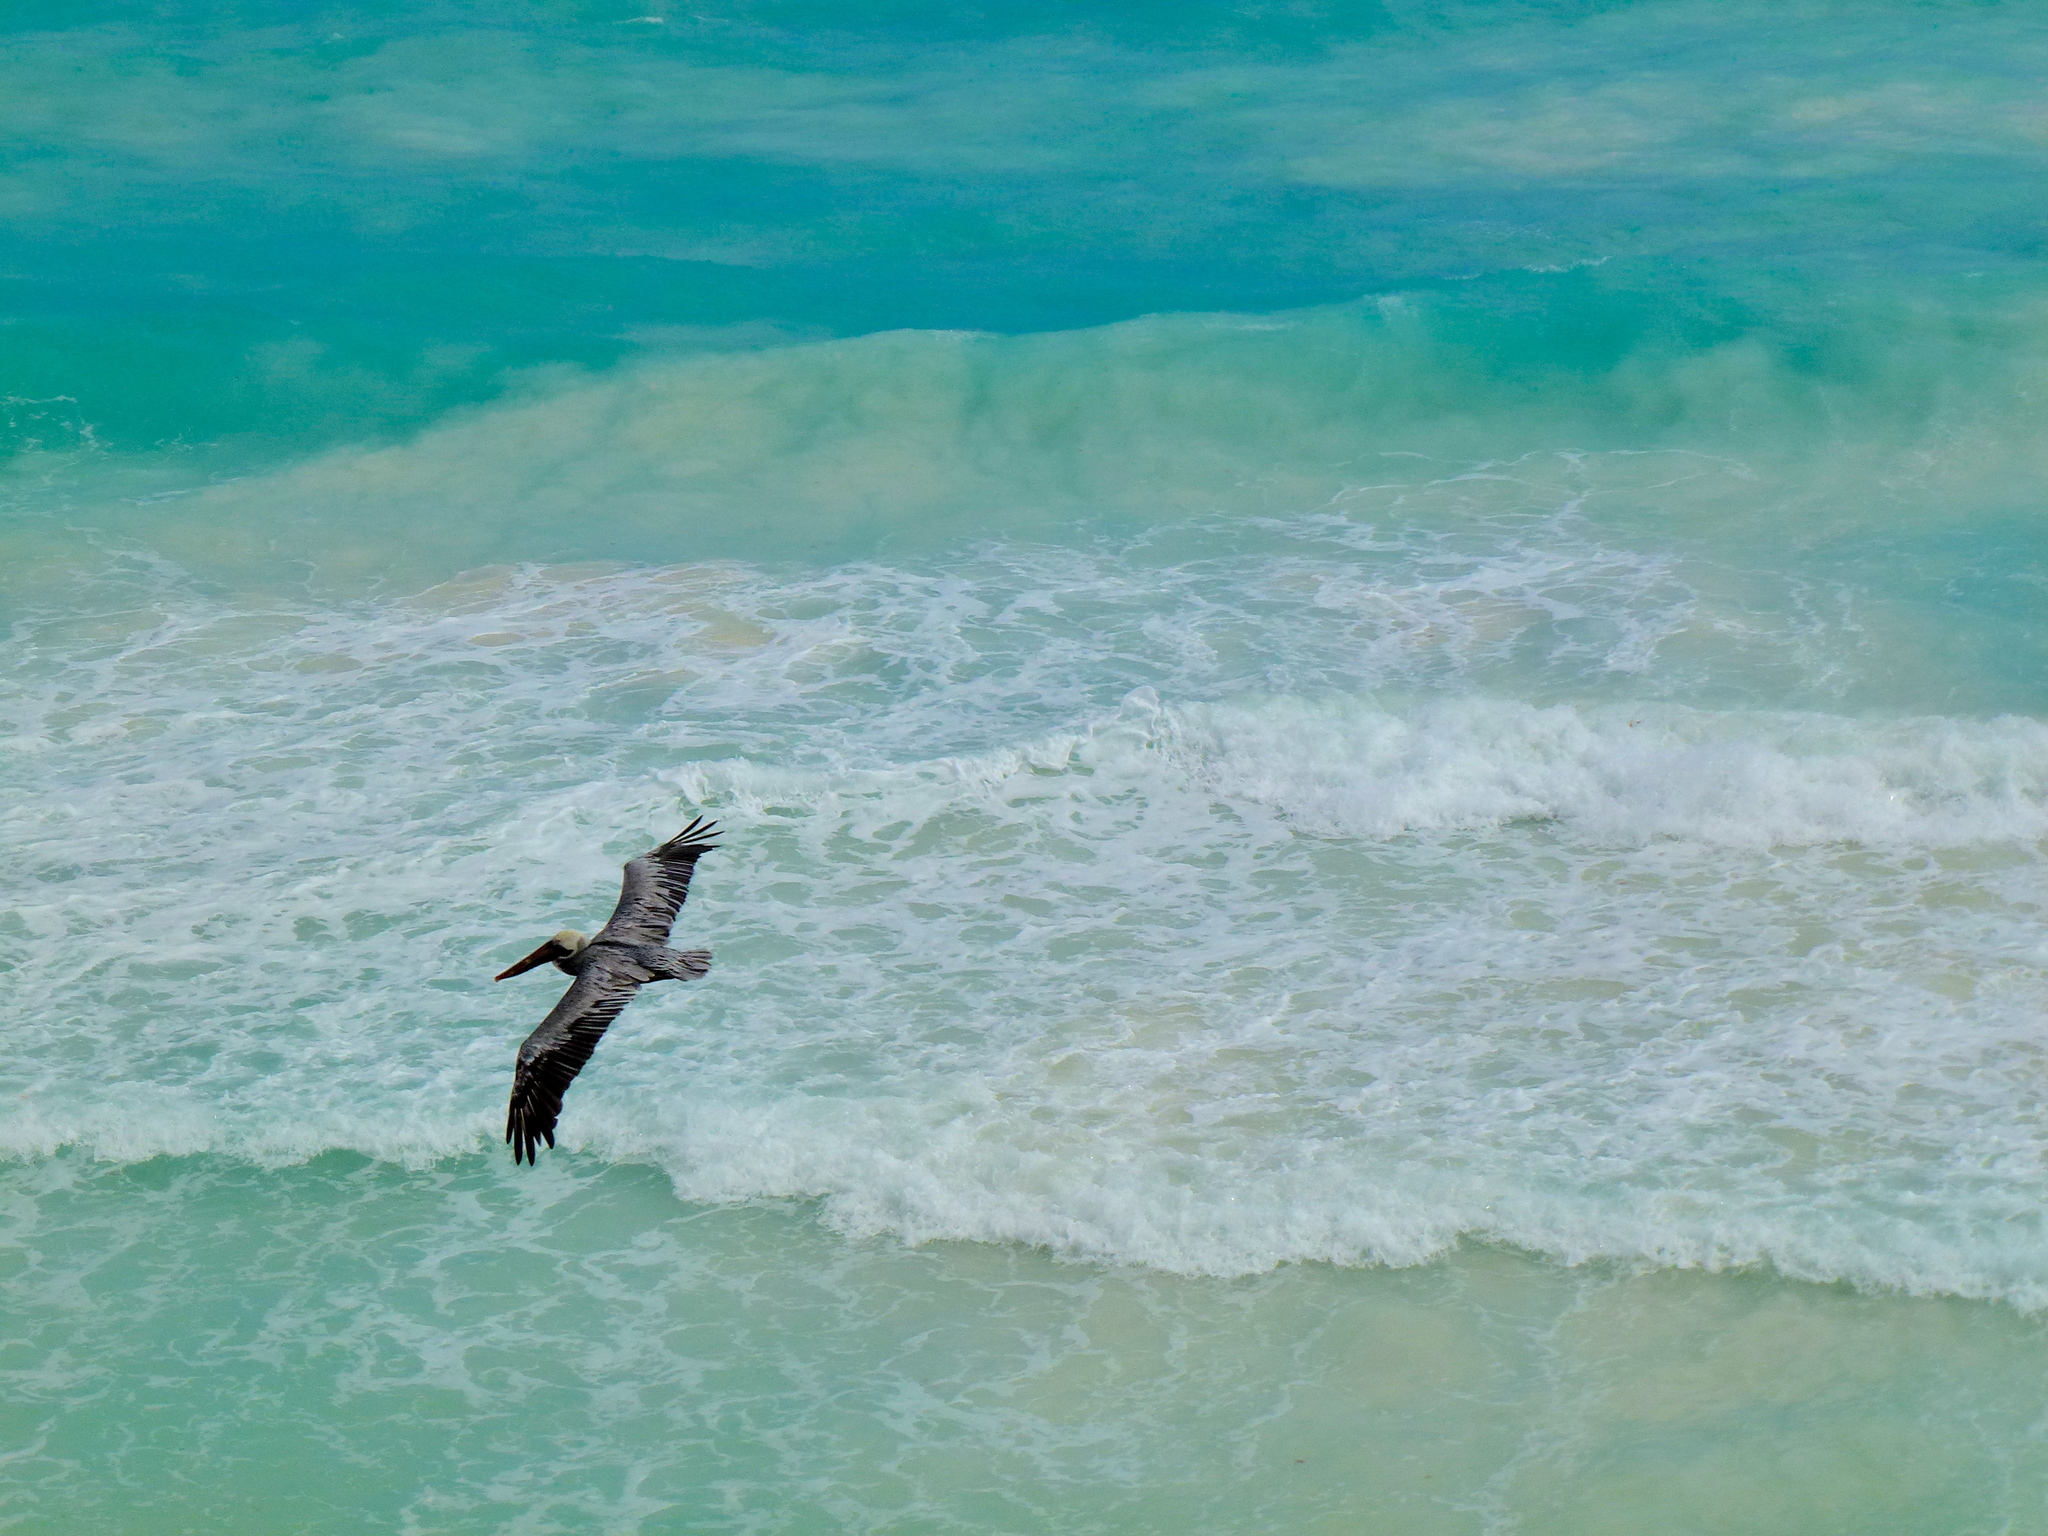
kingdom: Animalia
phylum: Chordata
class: Aves
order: Pelecaniformes
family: Pelecanidae
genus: Pelecanus
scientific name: Pelecanus occidentalis
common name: Brown pelican
